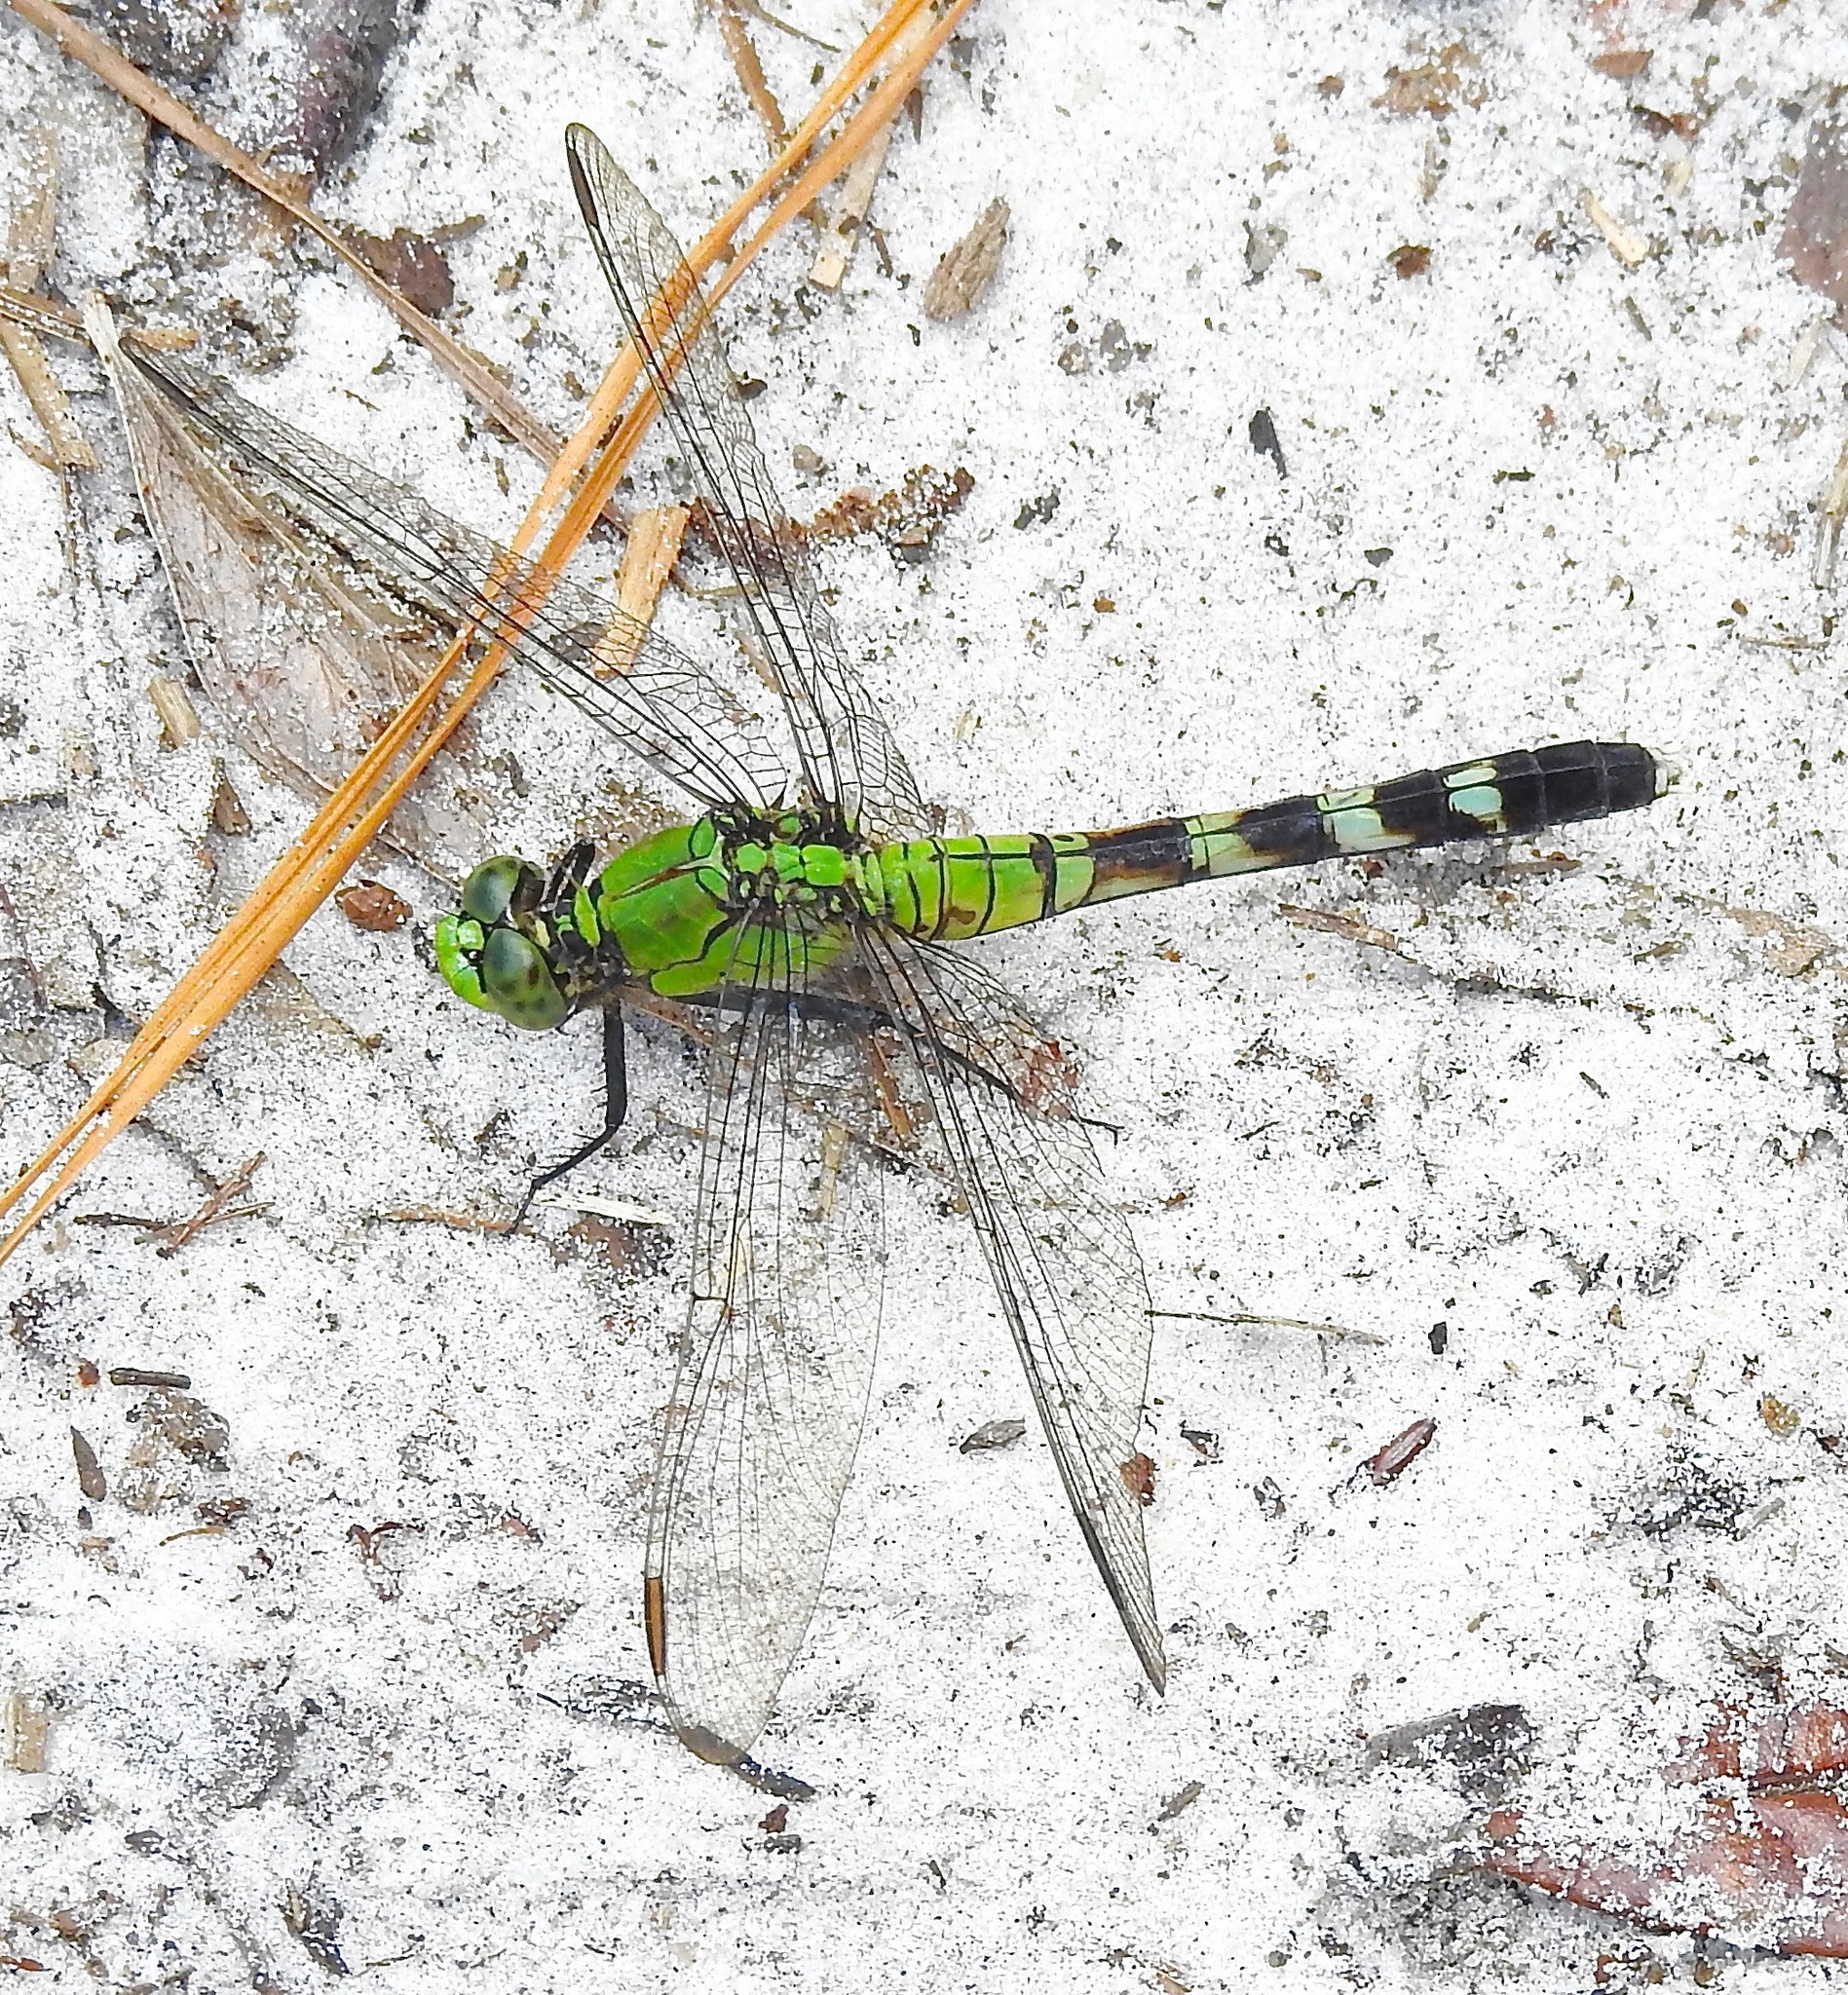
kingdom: Animalia
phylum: Arthropoda
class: Insecta
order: Odonata
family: Libellulidae
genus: Erythemis
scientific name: Erythemis simplicicollis
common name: Eastern pondhawk
